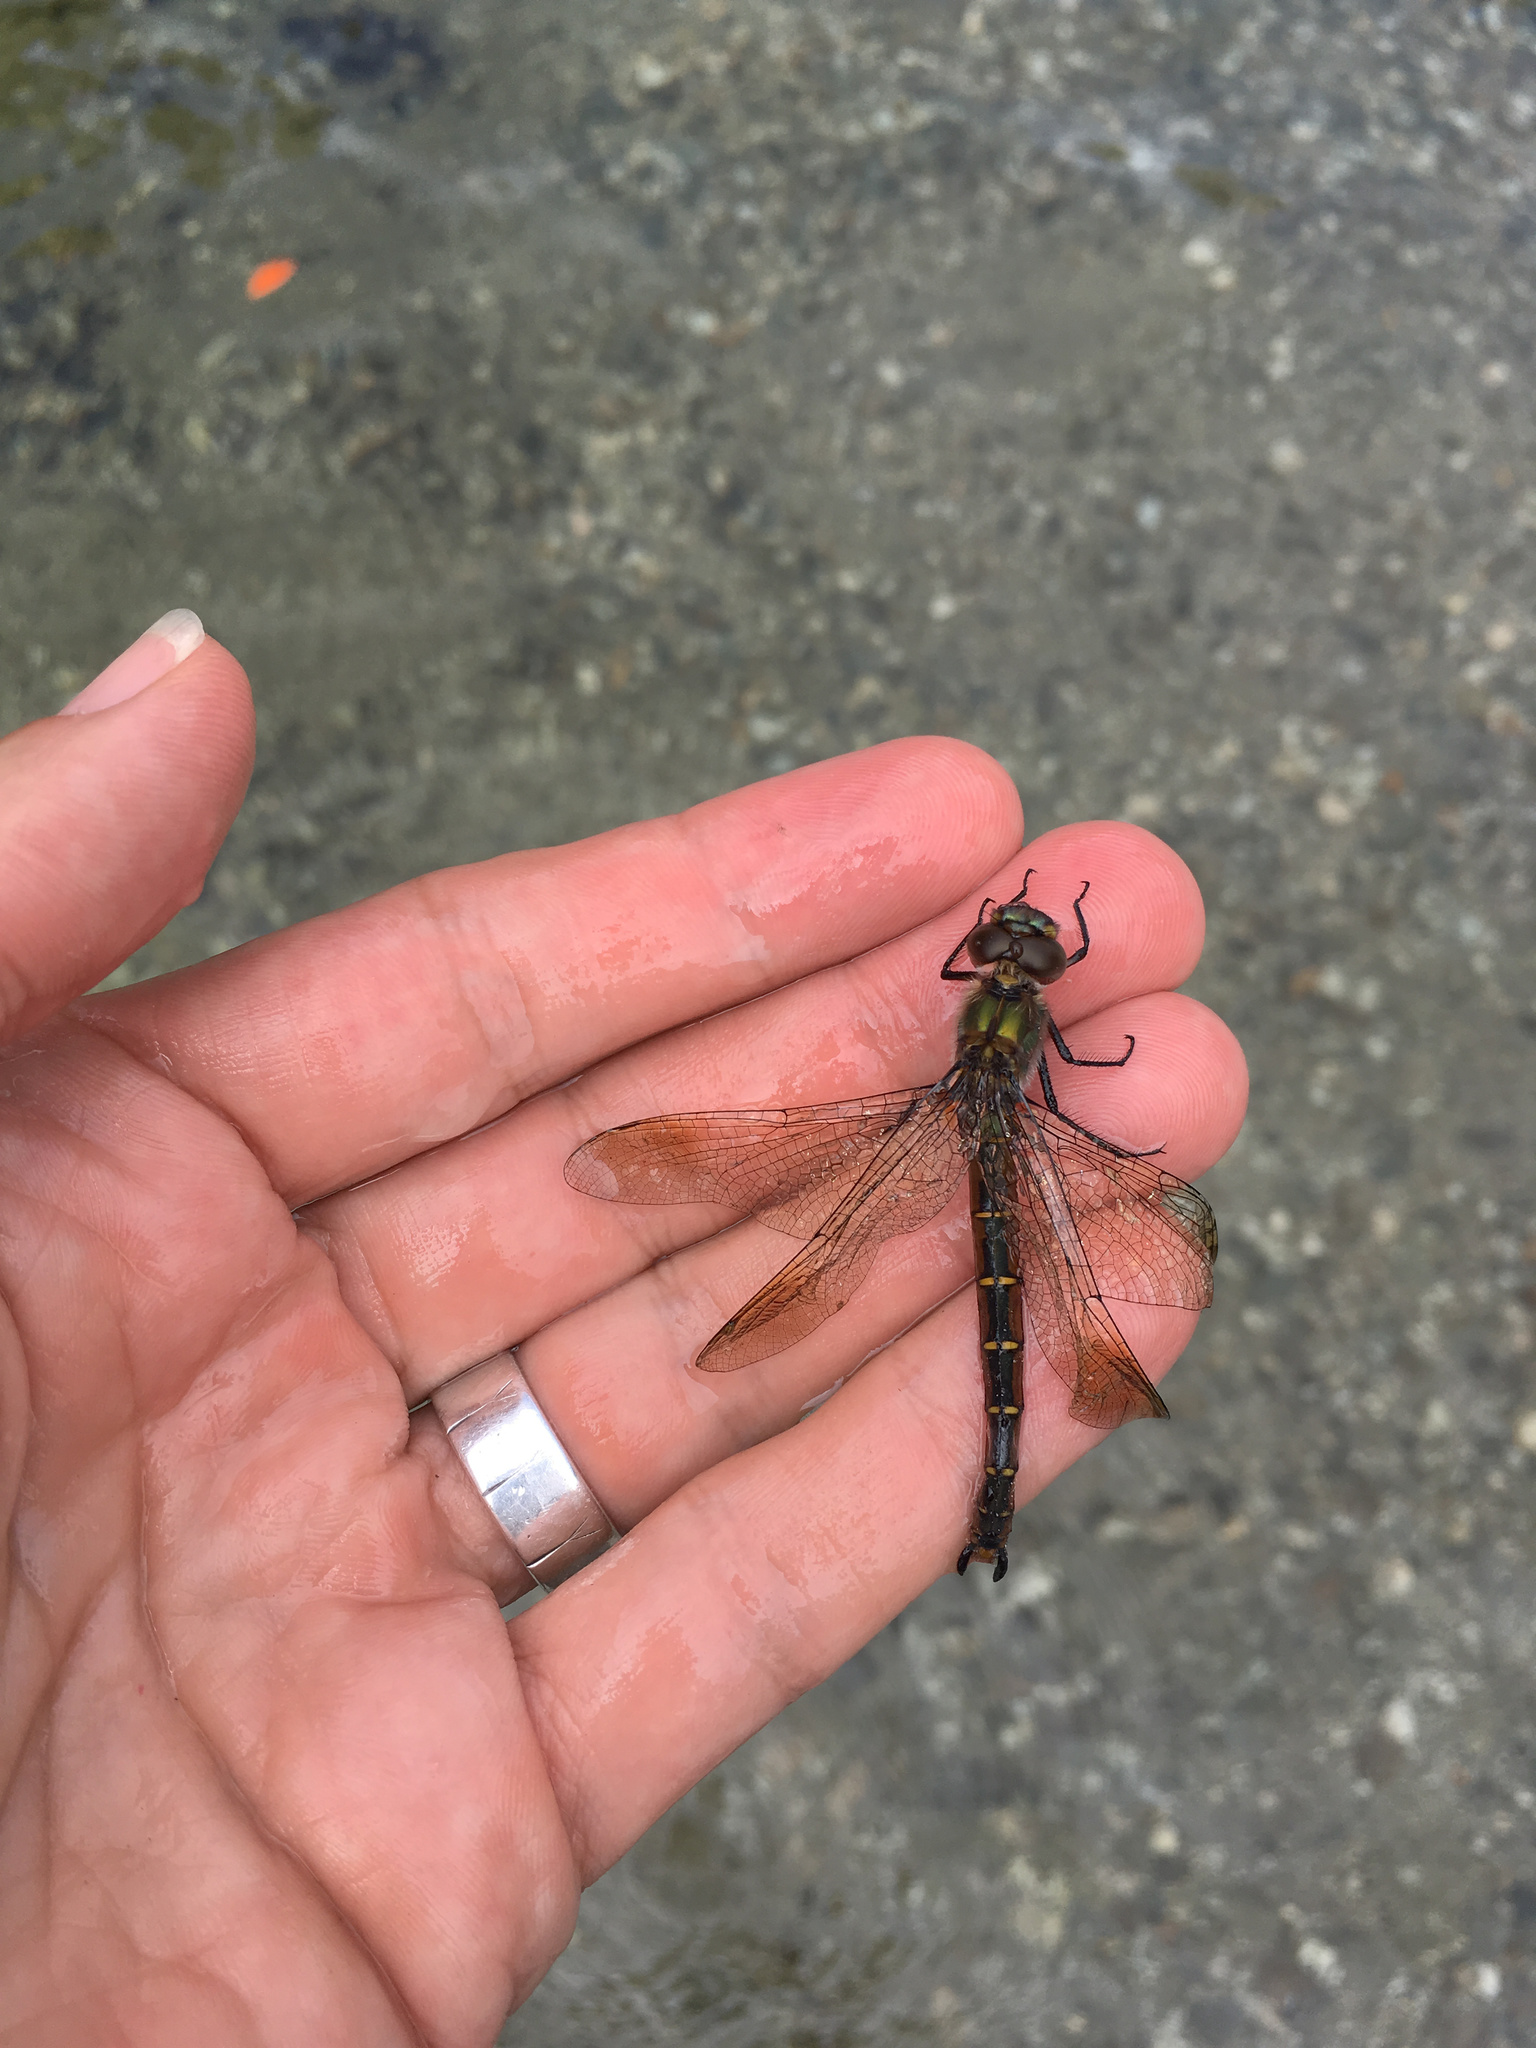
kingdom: Animalia
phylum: Arthropoda
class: Insecta
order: Odonata
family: Corduliidae
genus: Procordulia
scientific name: Procordulia smithii
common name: Ranger dragonfly
